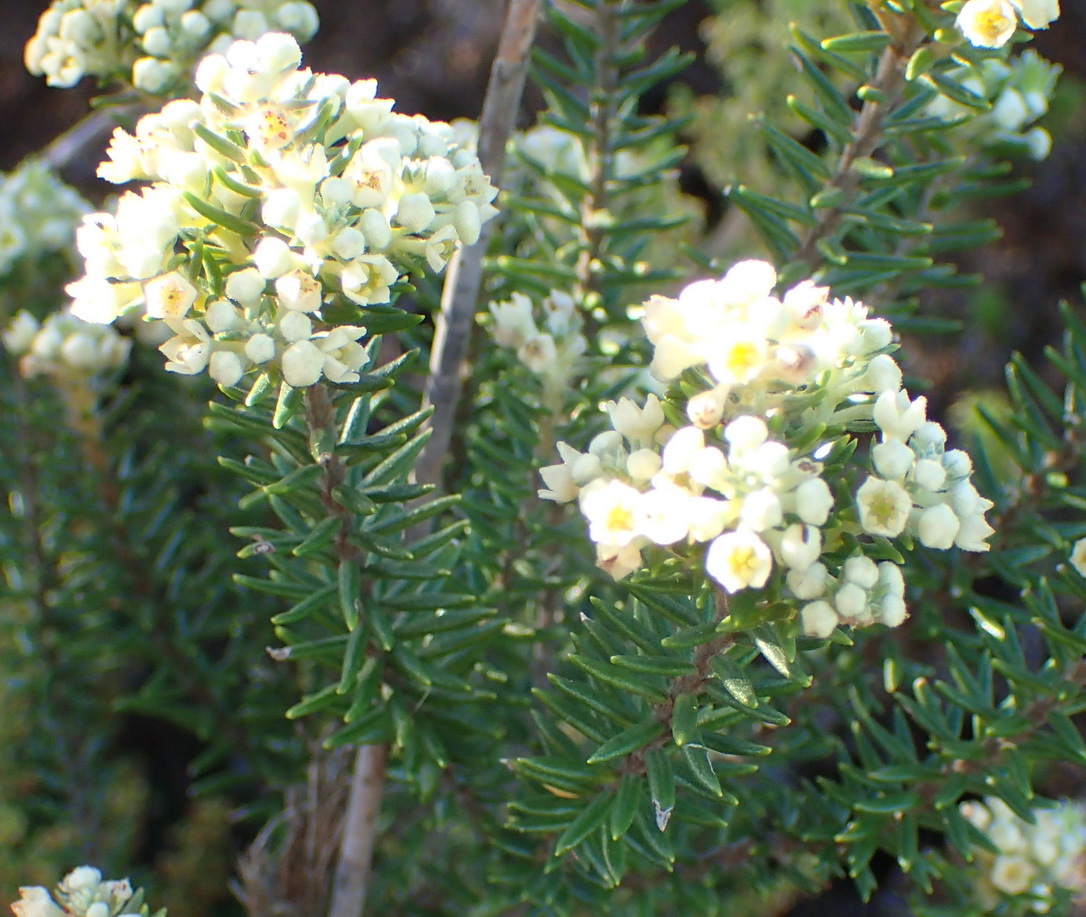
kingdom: Plantae
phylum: Tracheophyta
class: Magnoliopsida
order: Rosales
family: Rhamnaceae
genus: Phylica
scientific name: Phylica axillaris
